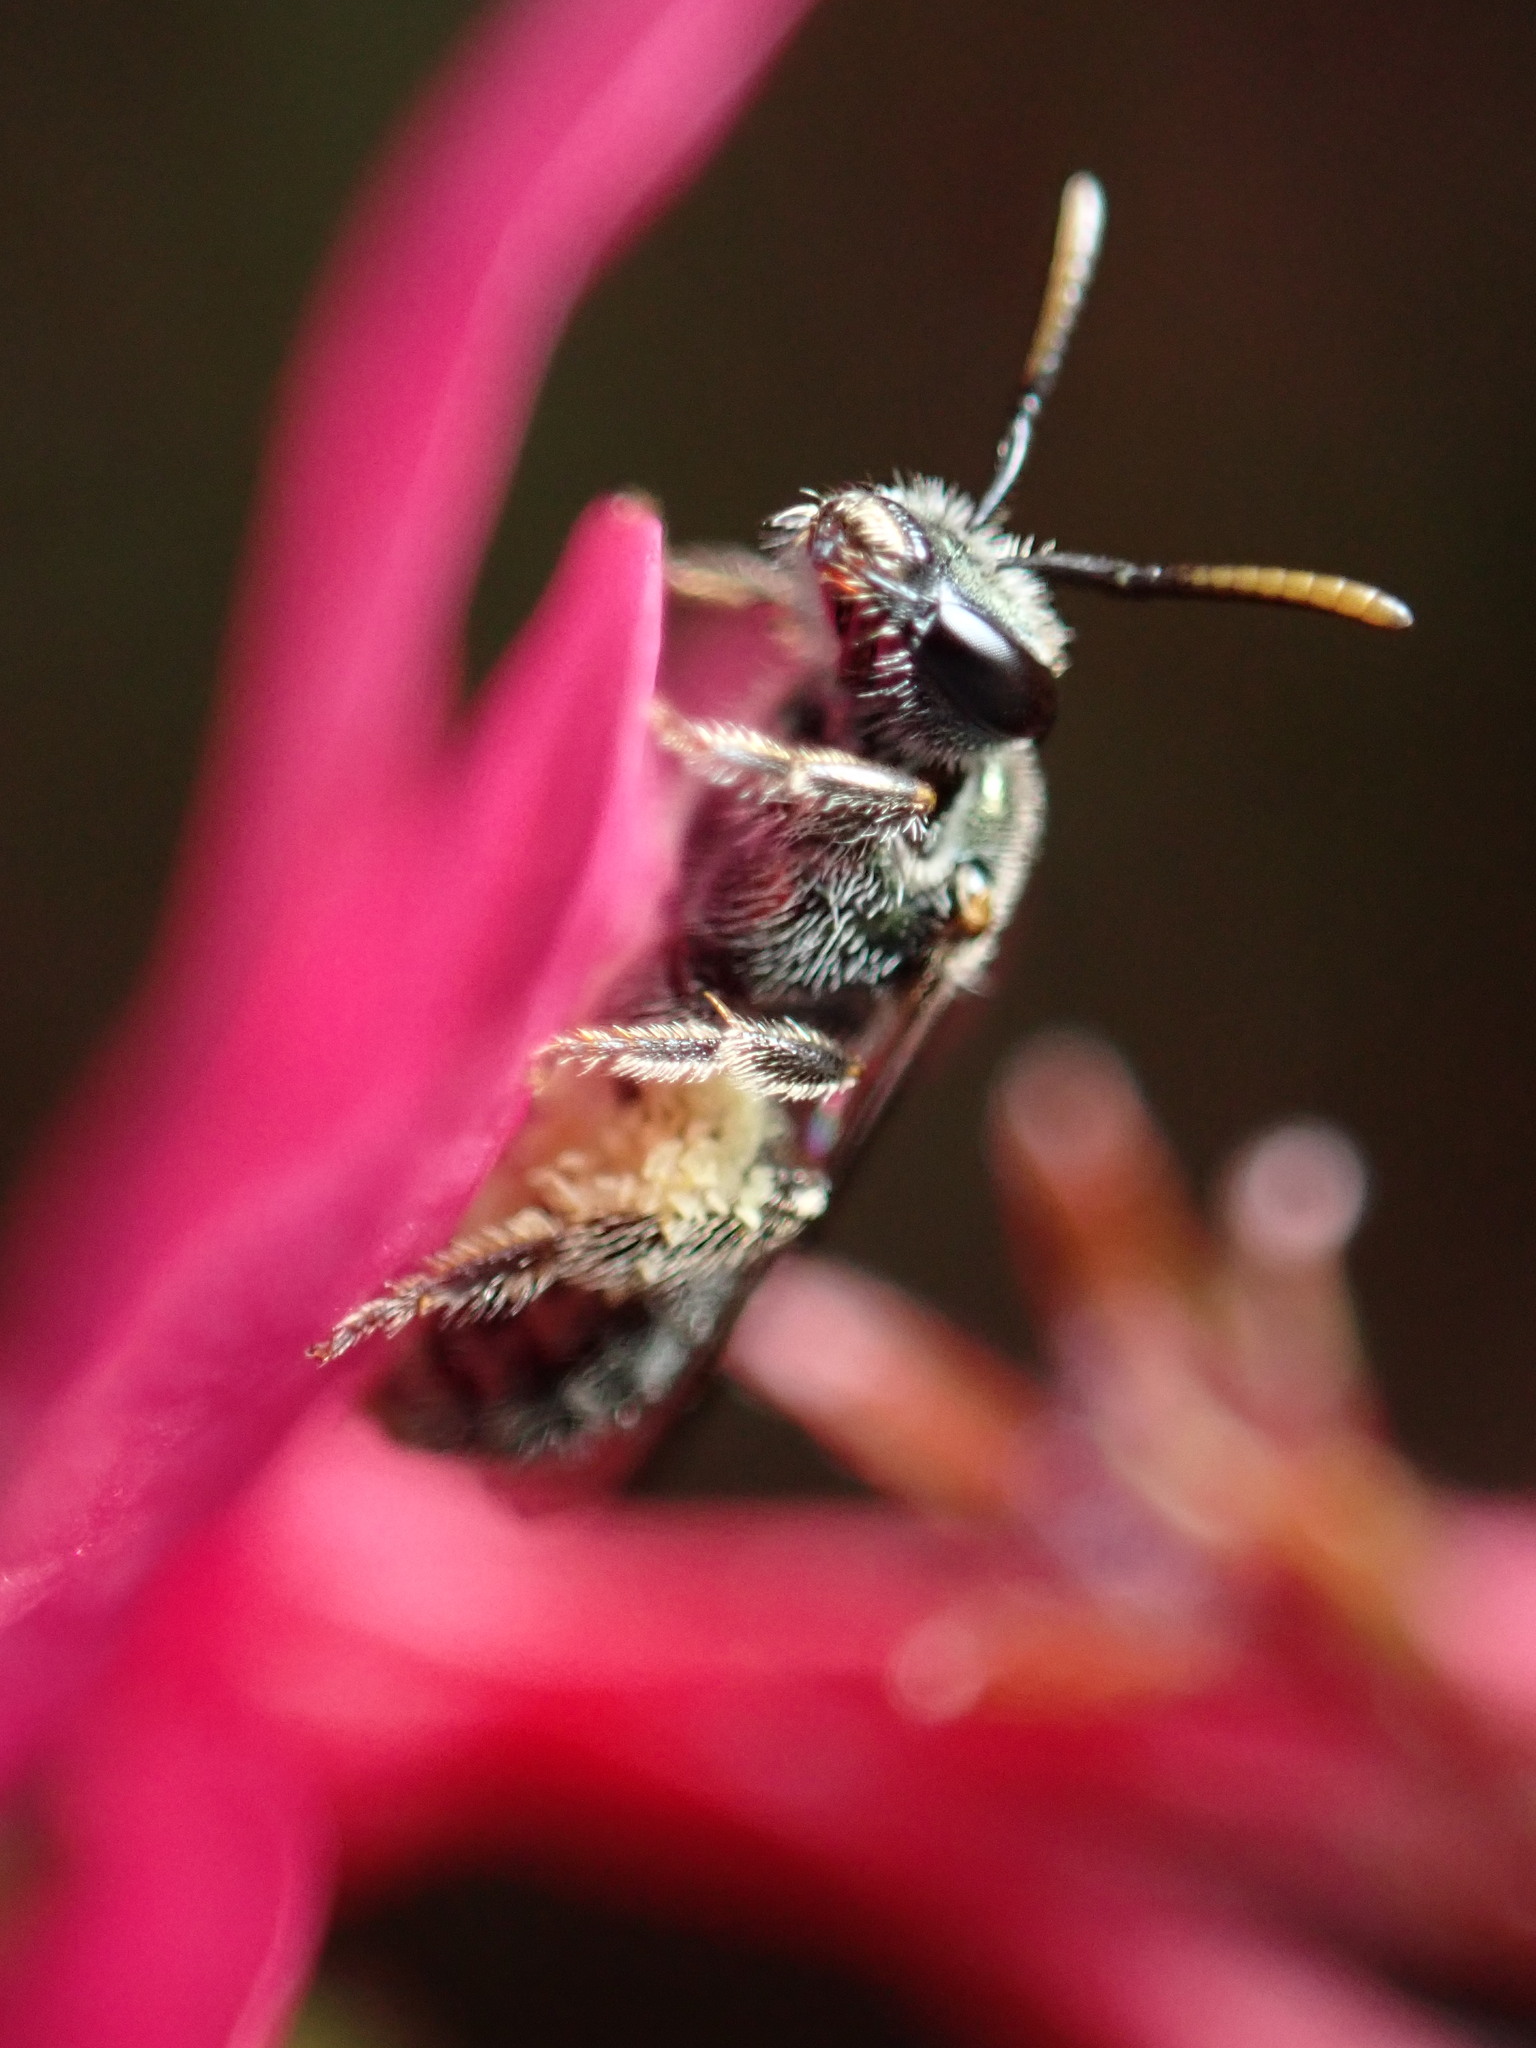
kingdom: Animalia
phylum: Arthropoda
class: Insecta
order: Hymenoptera
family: Halictidae
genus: Lasioglossum
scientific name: Lasioglossum loetum
